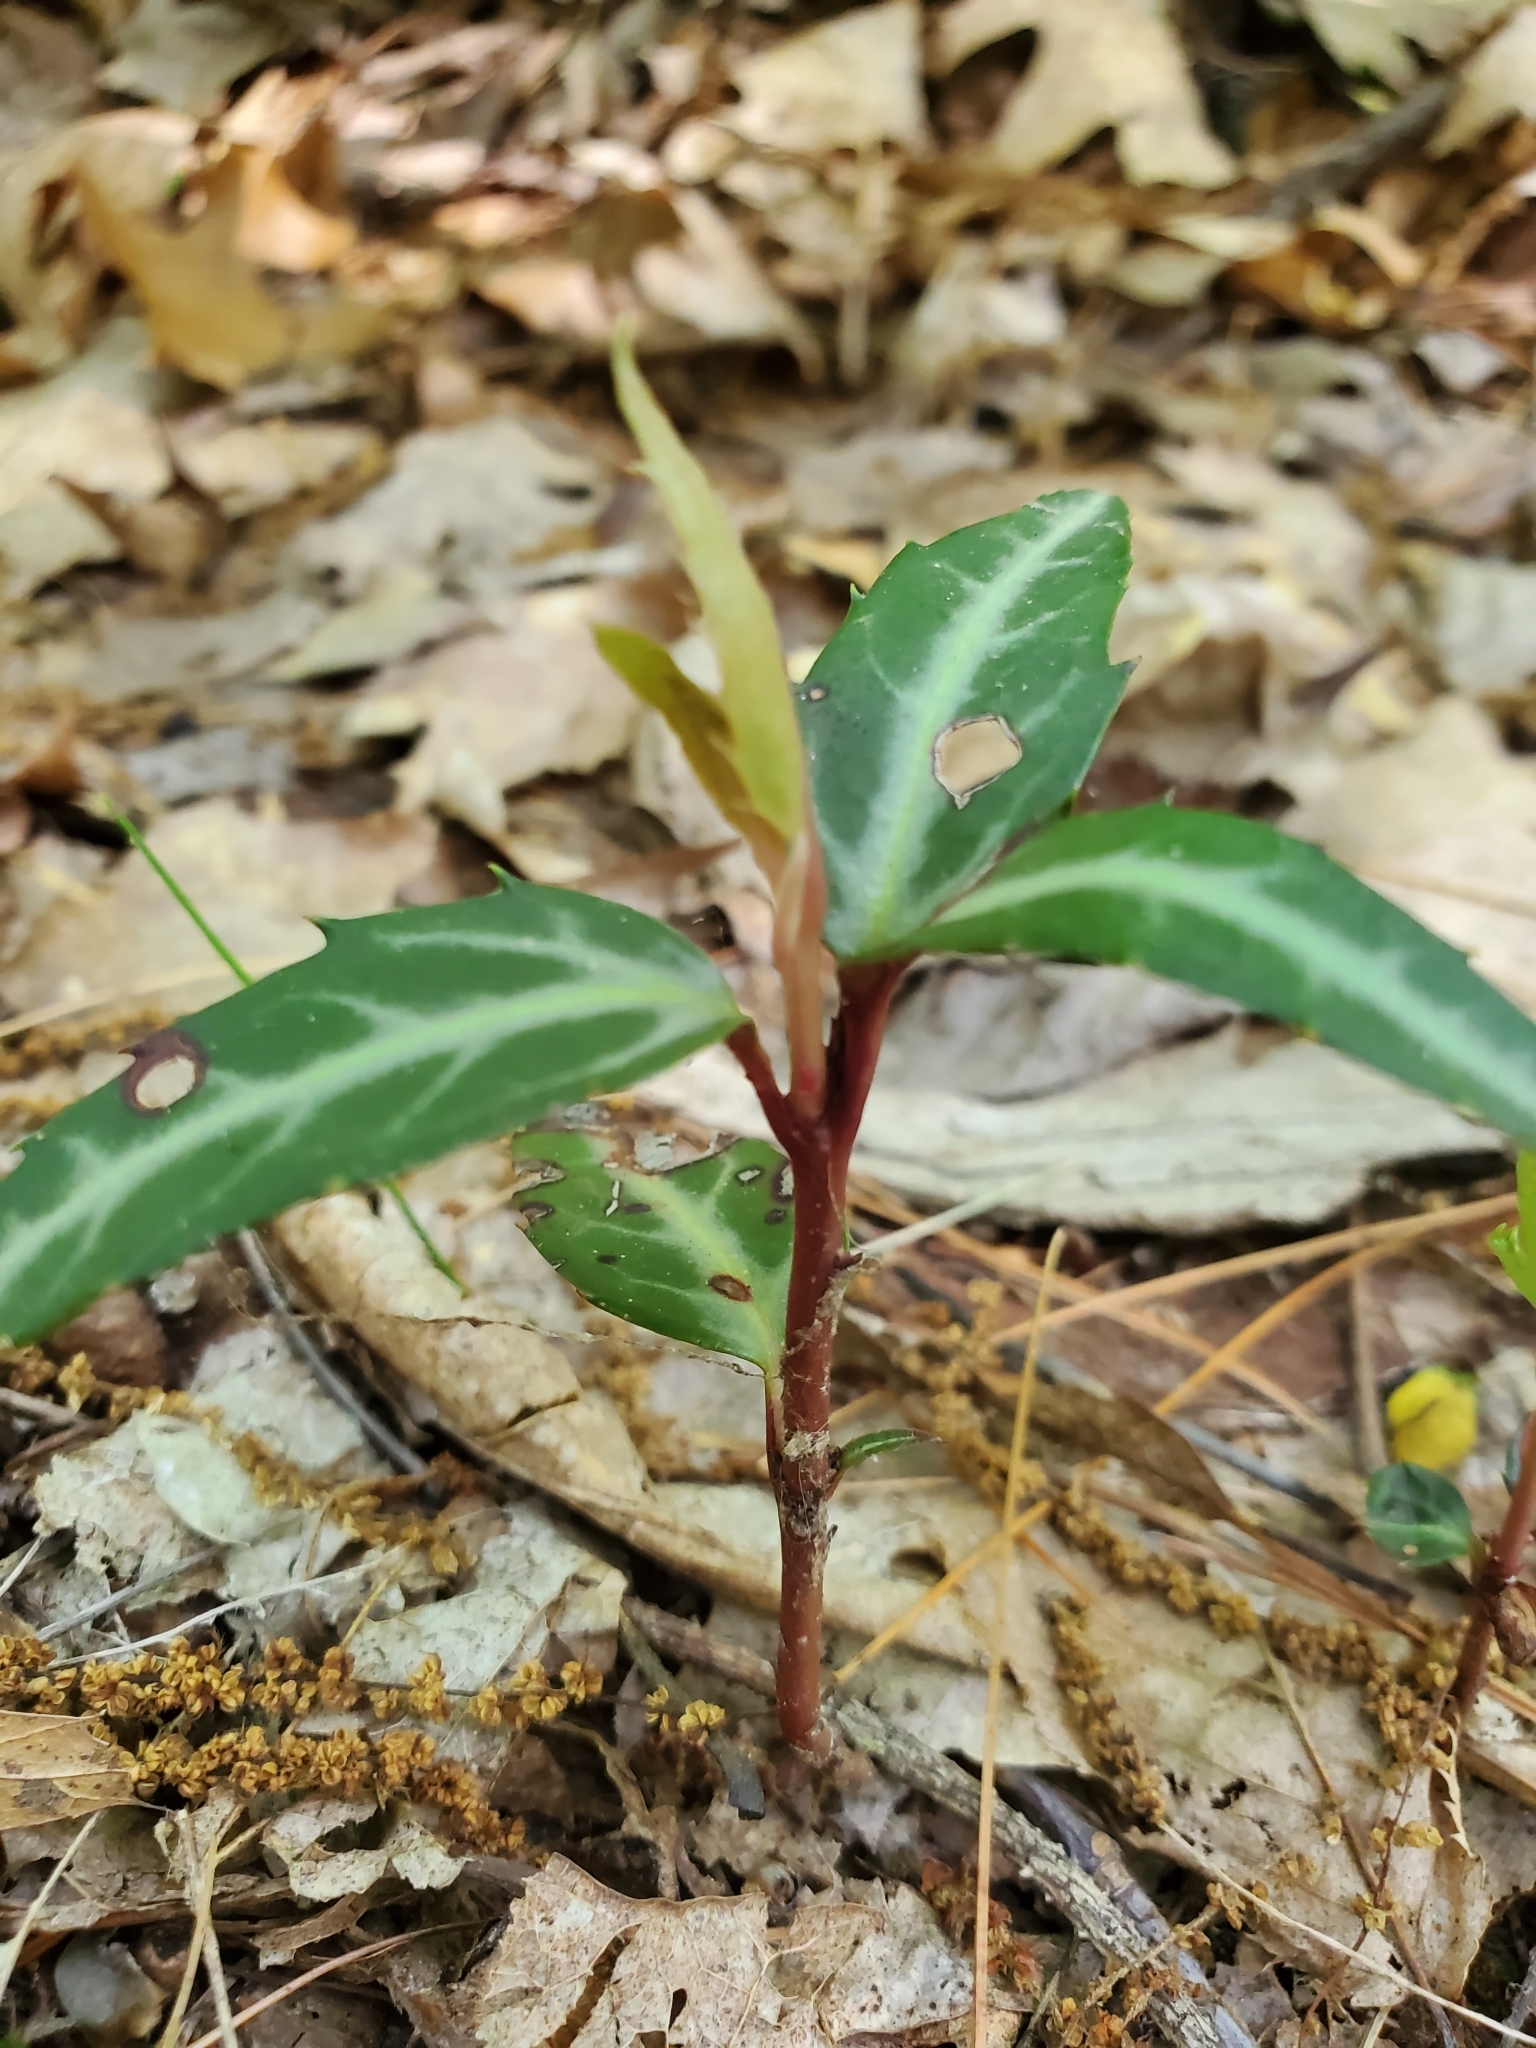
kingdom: Plantae
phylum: Tracheophyta
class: Magnoliopsida
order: Ericales
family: Ericaceae
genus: Chimaphila
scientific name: Chimaphila maculata
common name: Spotted pipsissewa
